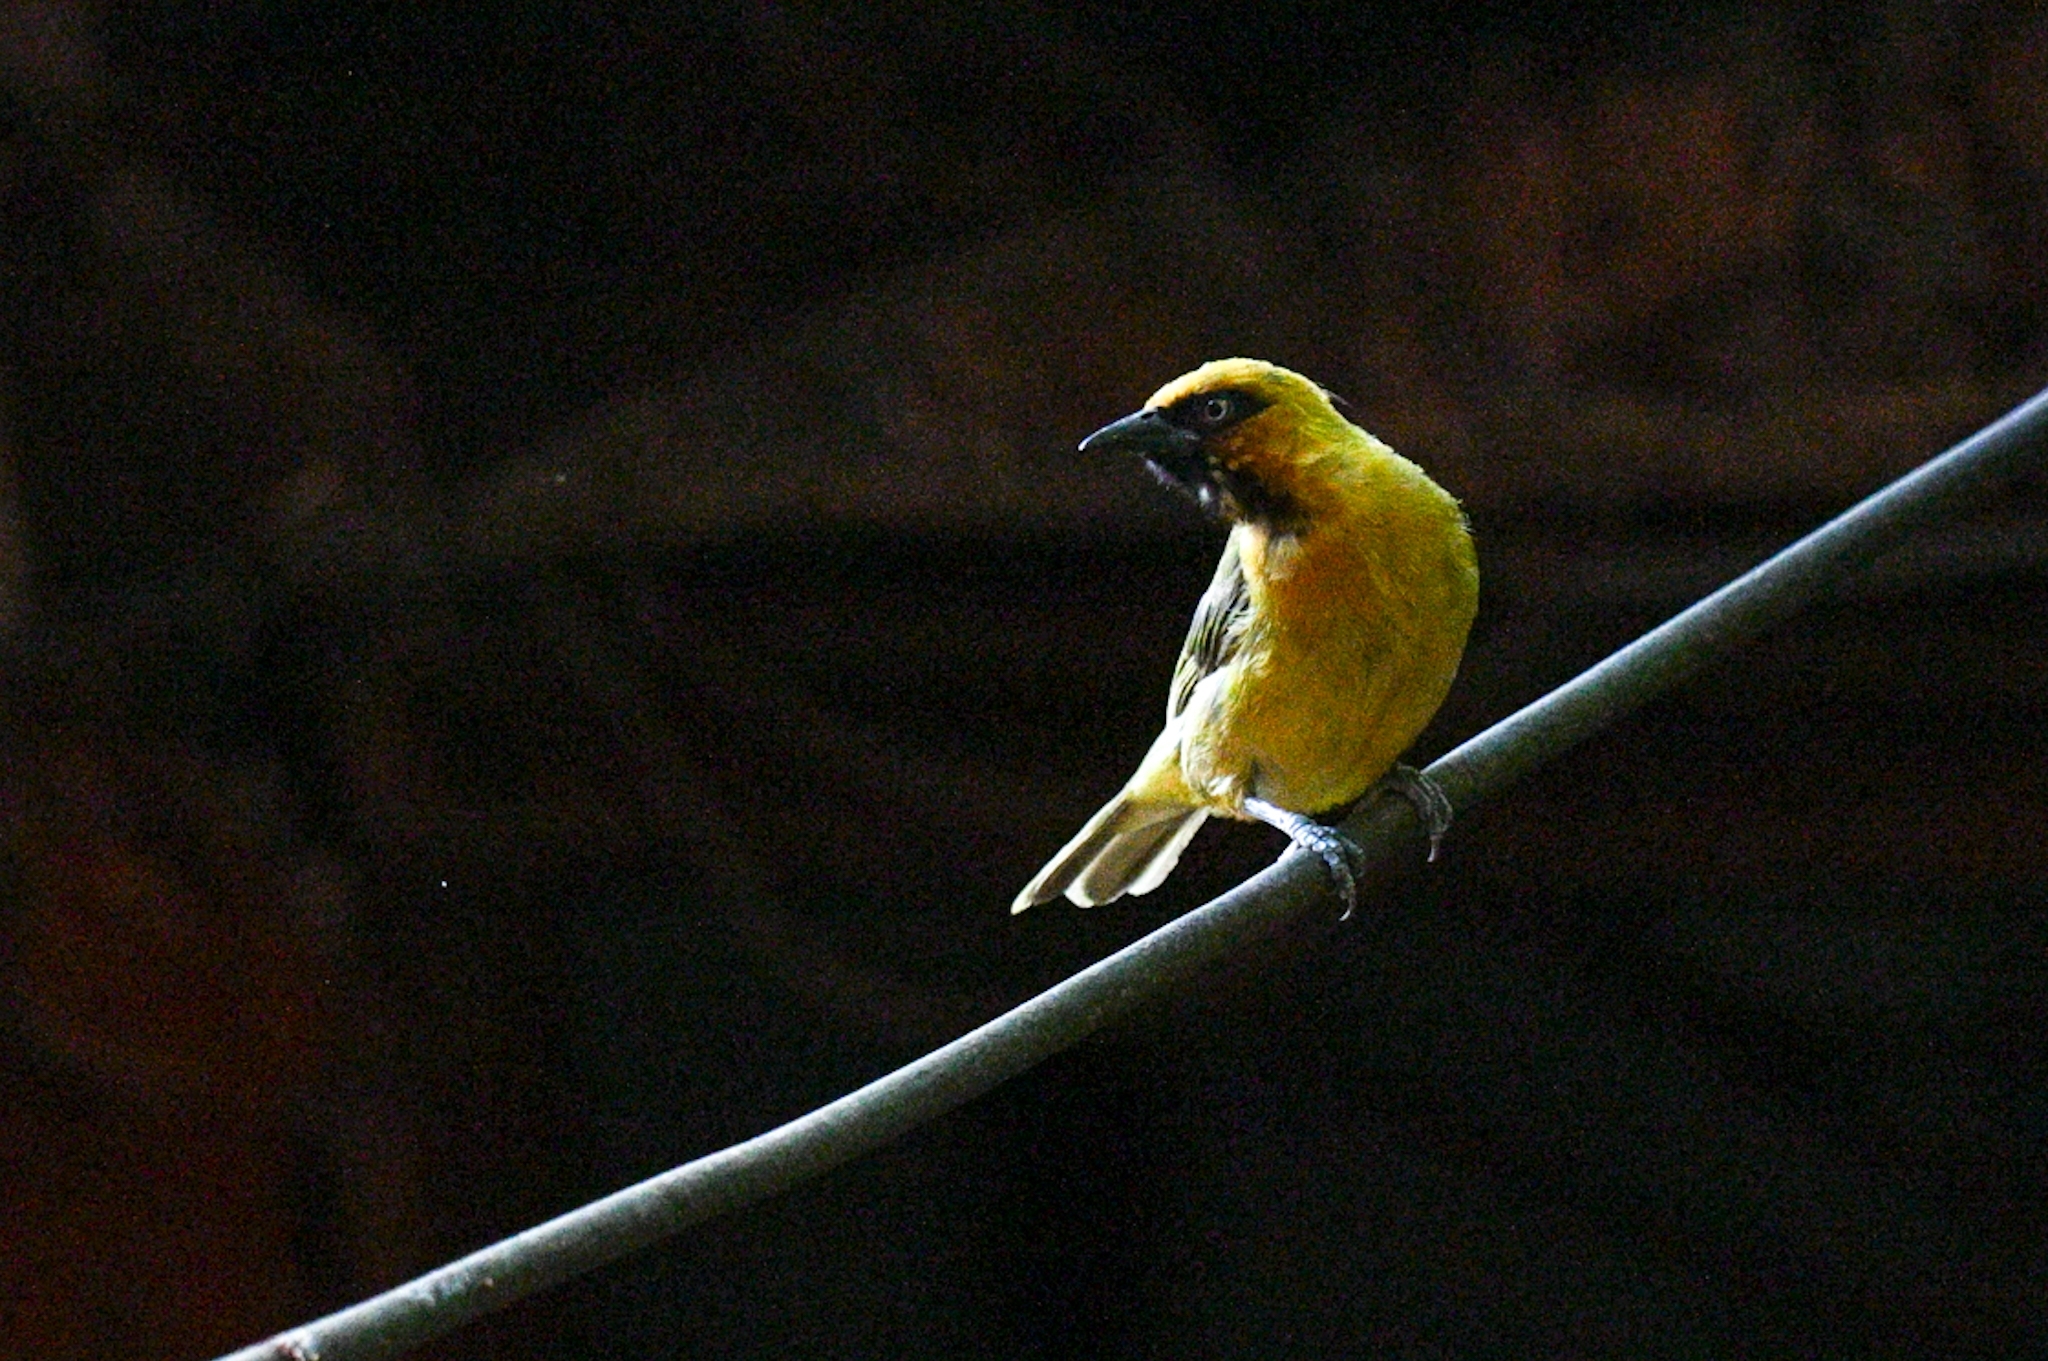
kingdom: Animalia
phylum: Chordata
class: Aves
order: Passeriformes
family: Ploceidae
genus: Ploceus
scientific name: Ploceus brachypterus
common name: Olive-naped weaver
